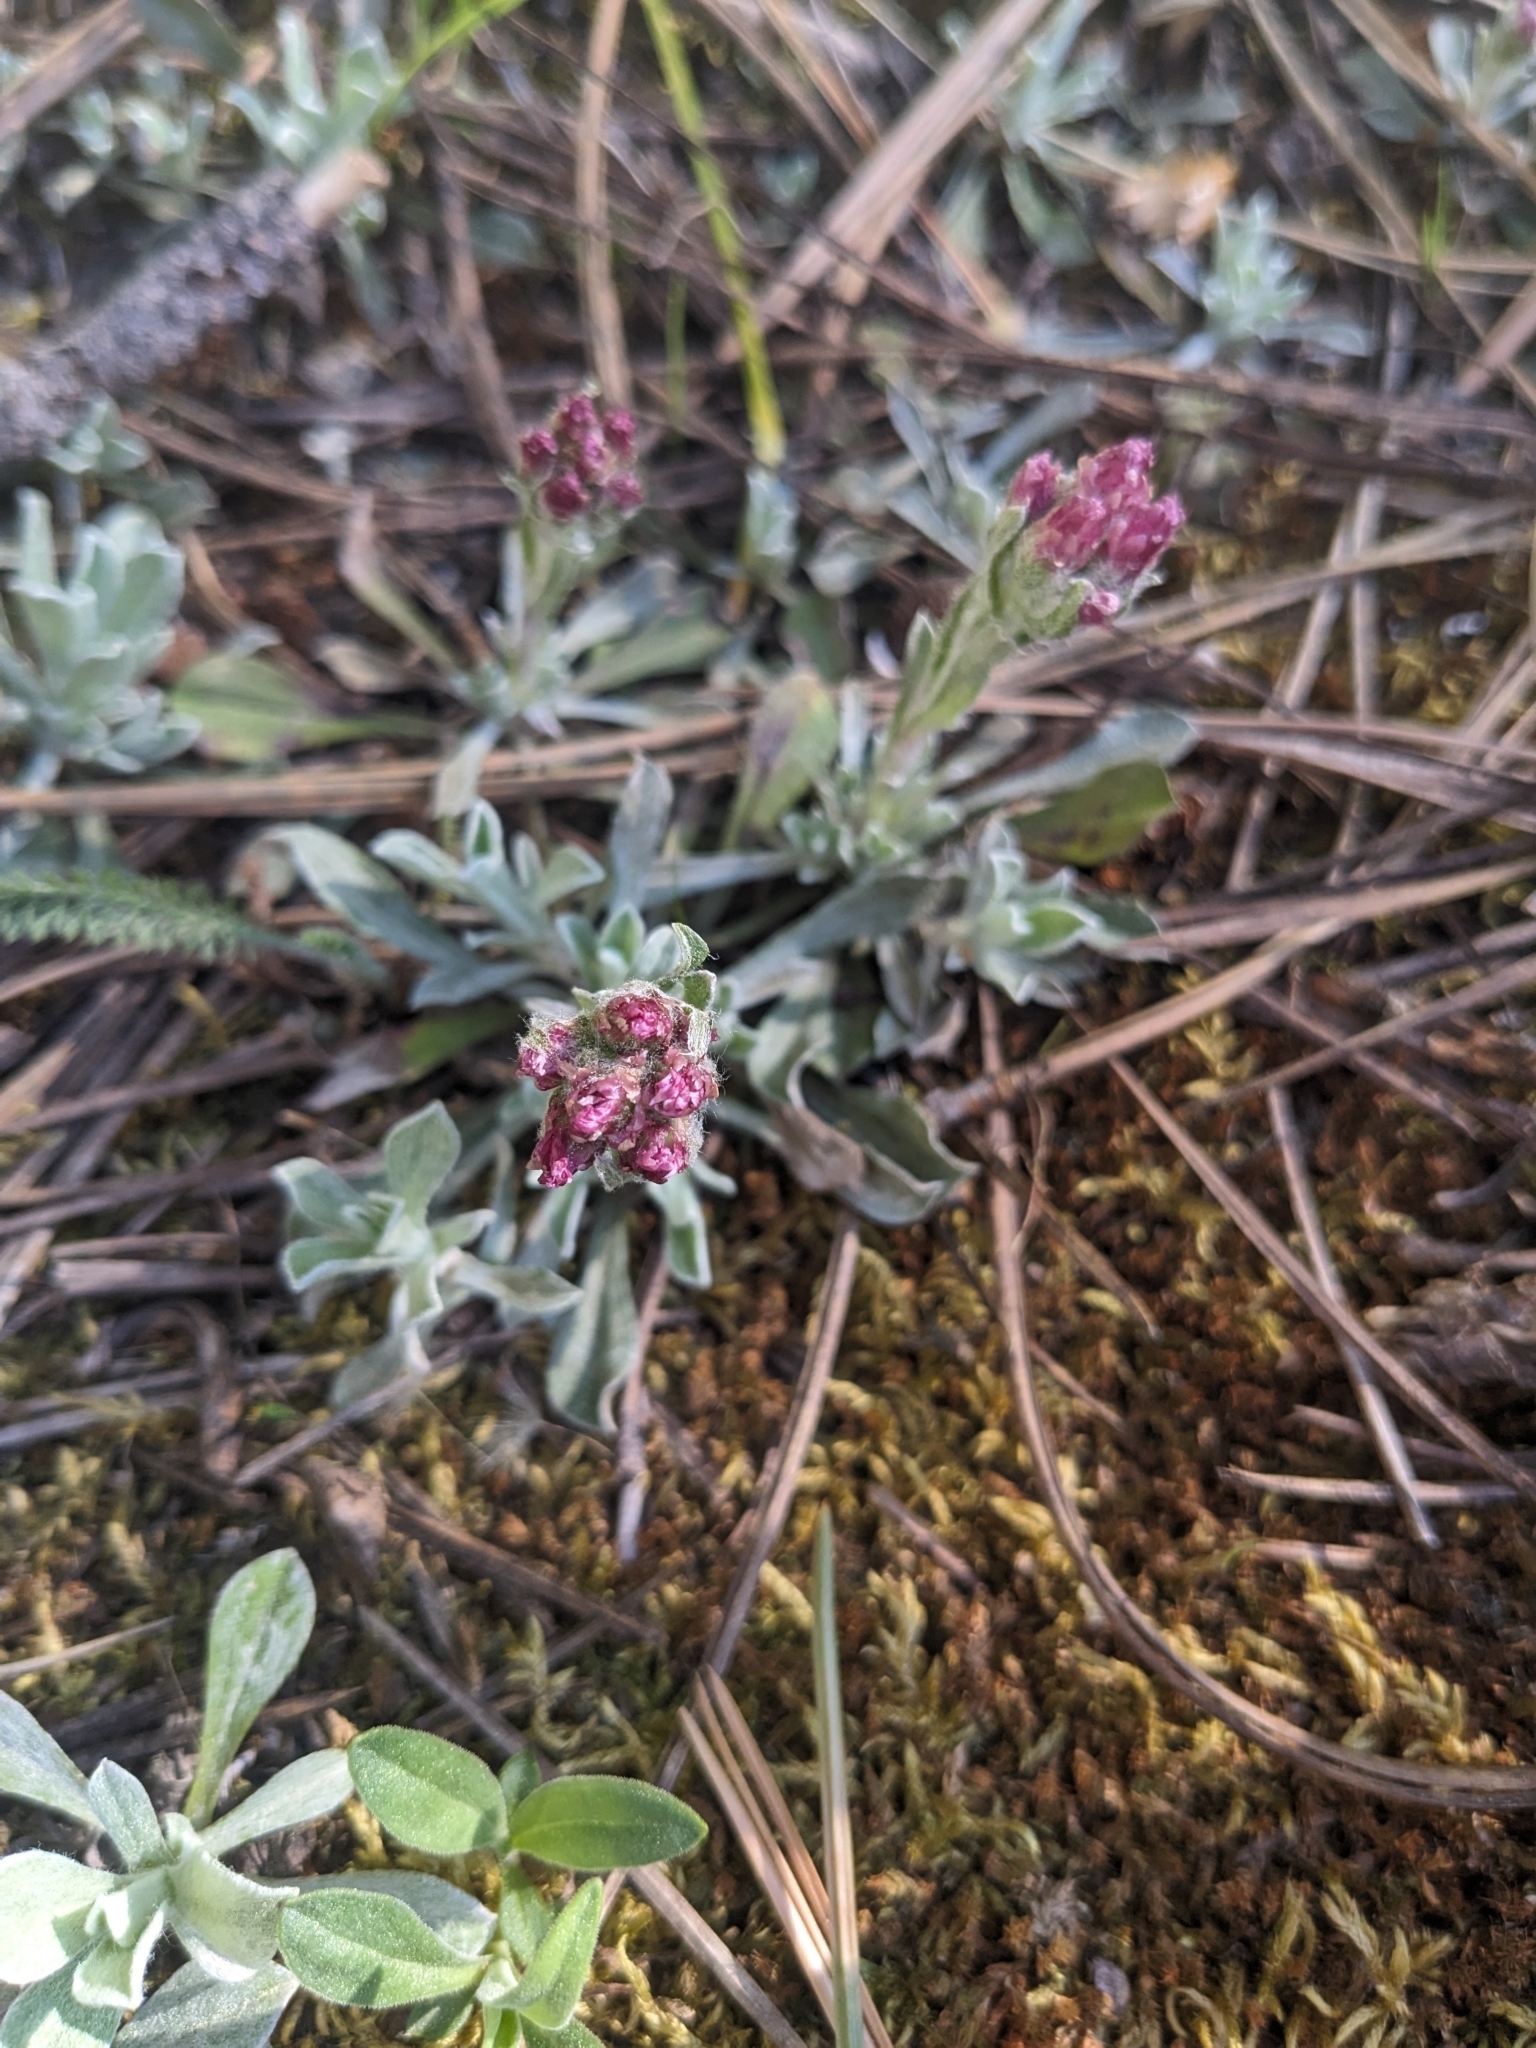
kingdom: Plantae
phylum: Tracheophyta
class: Magnoliopsida
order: Asterales
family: Asteraceae
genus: Antennaria
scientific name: Antennaria rosea
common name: Rosy pussytoes
